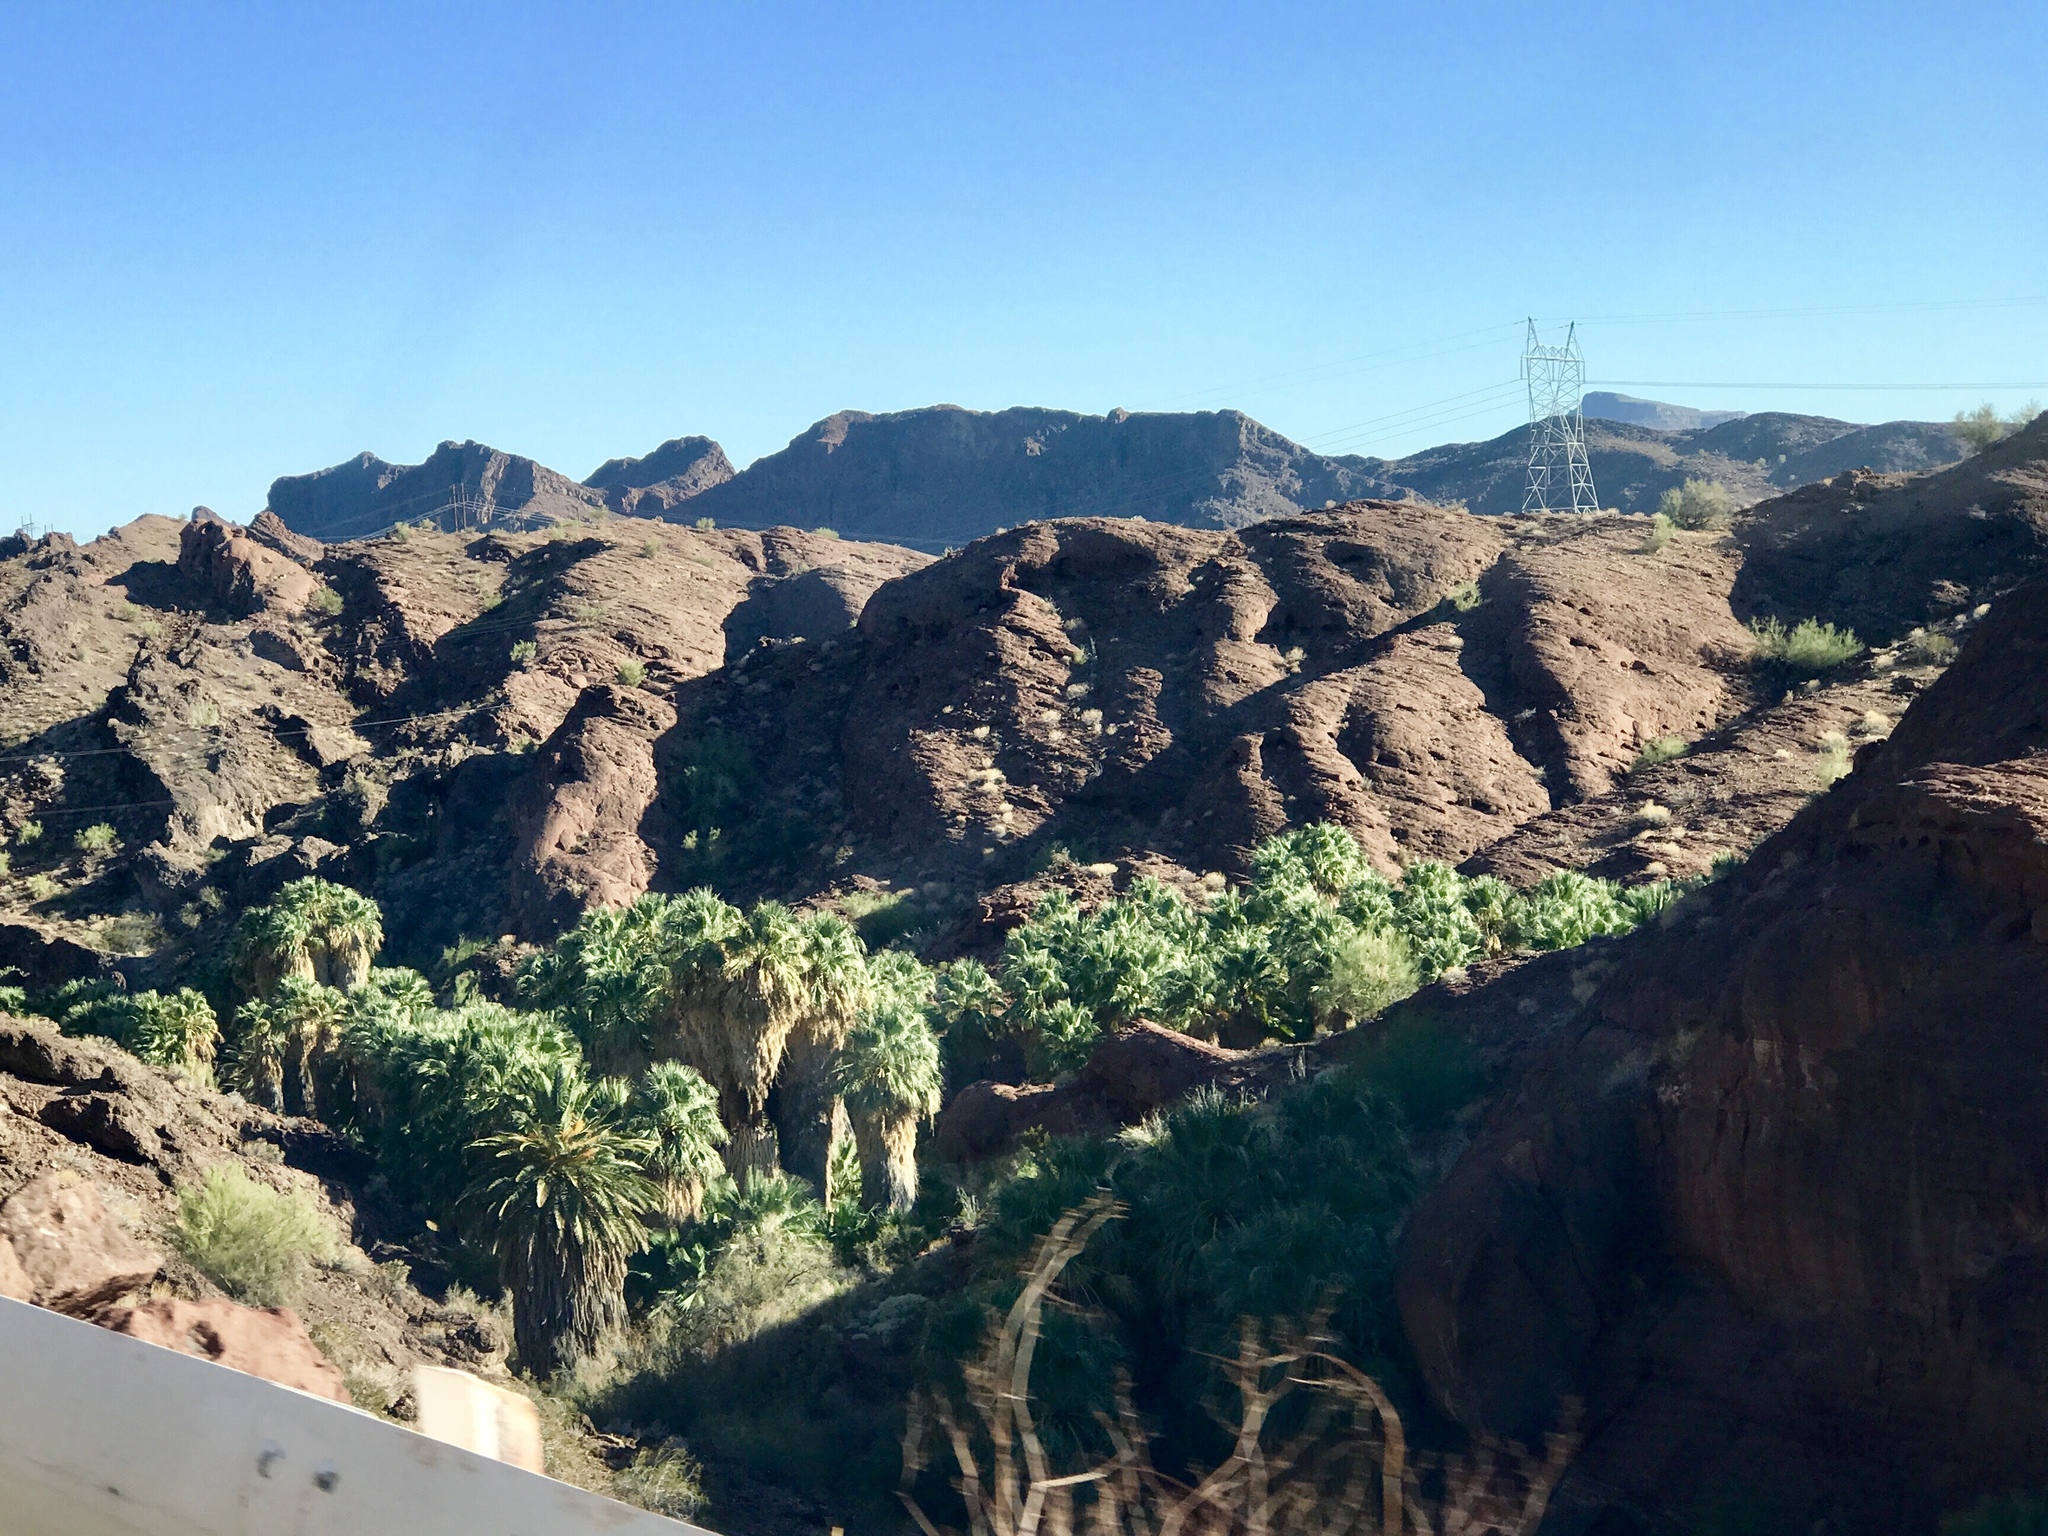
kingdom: Plantae
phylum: Tracheophyta
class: Liliopsida
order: Arecales
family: Arecaceae
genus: Washingtonia
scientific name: Washingtonia filifera
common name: California fan palm
